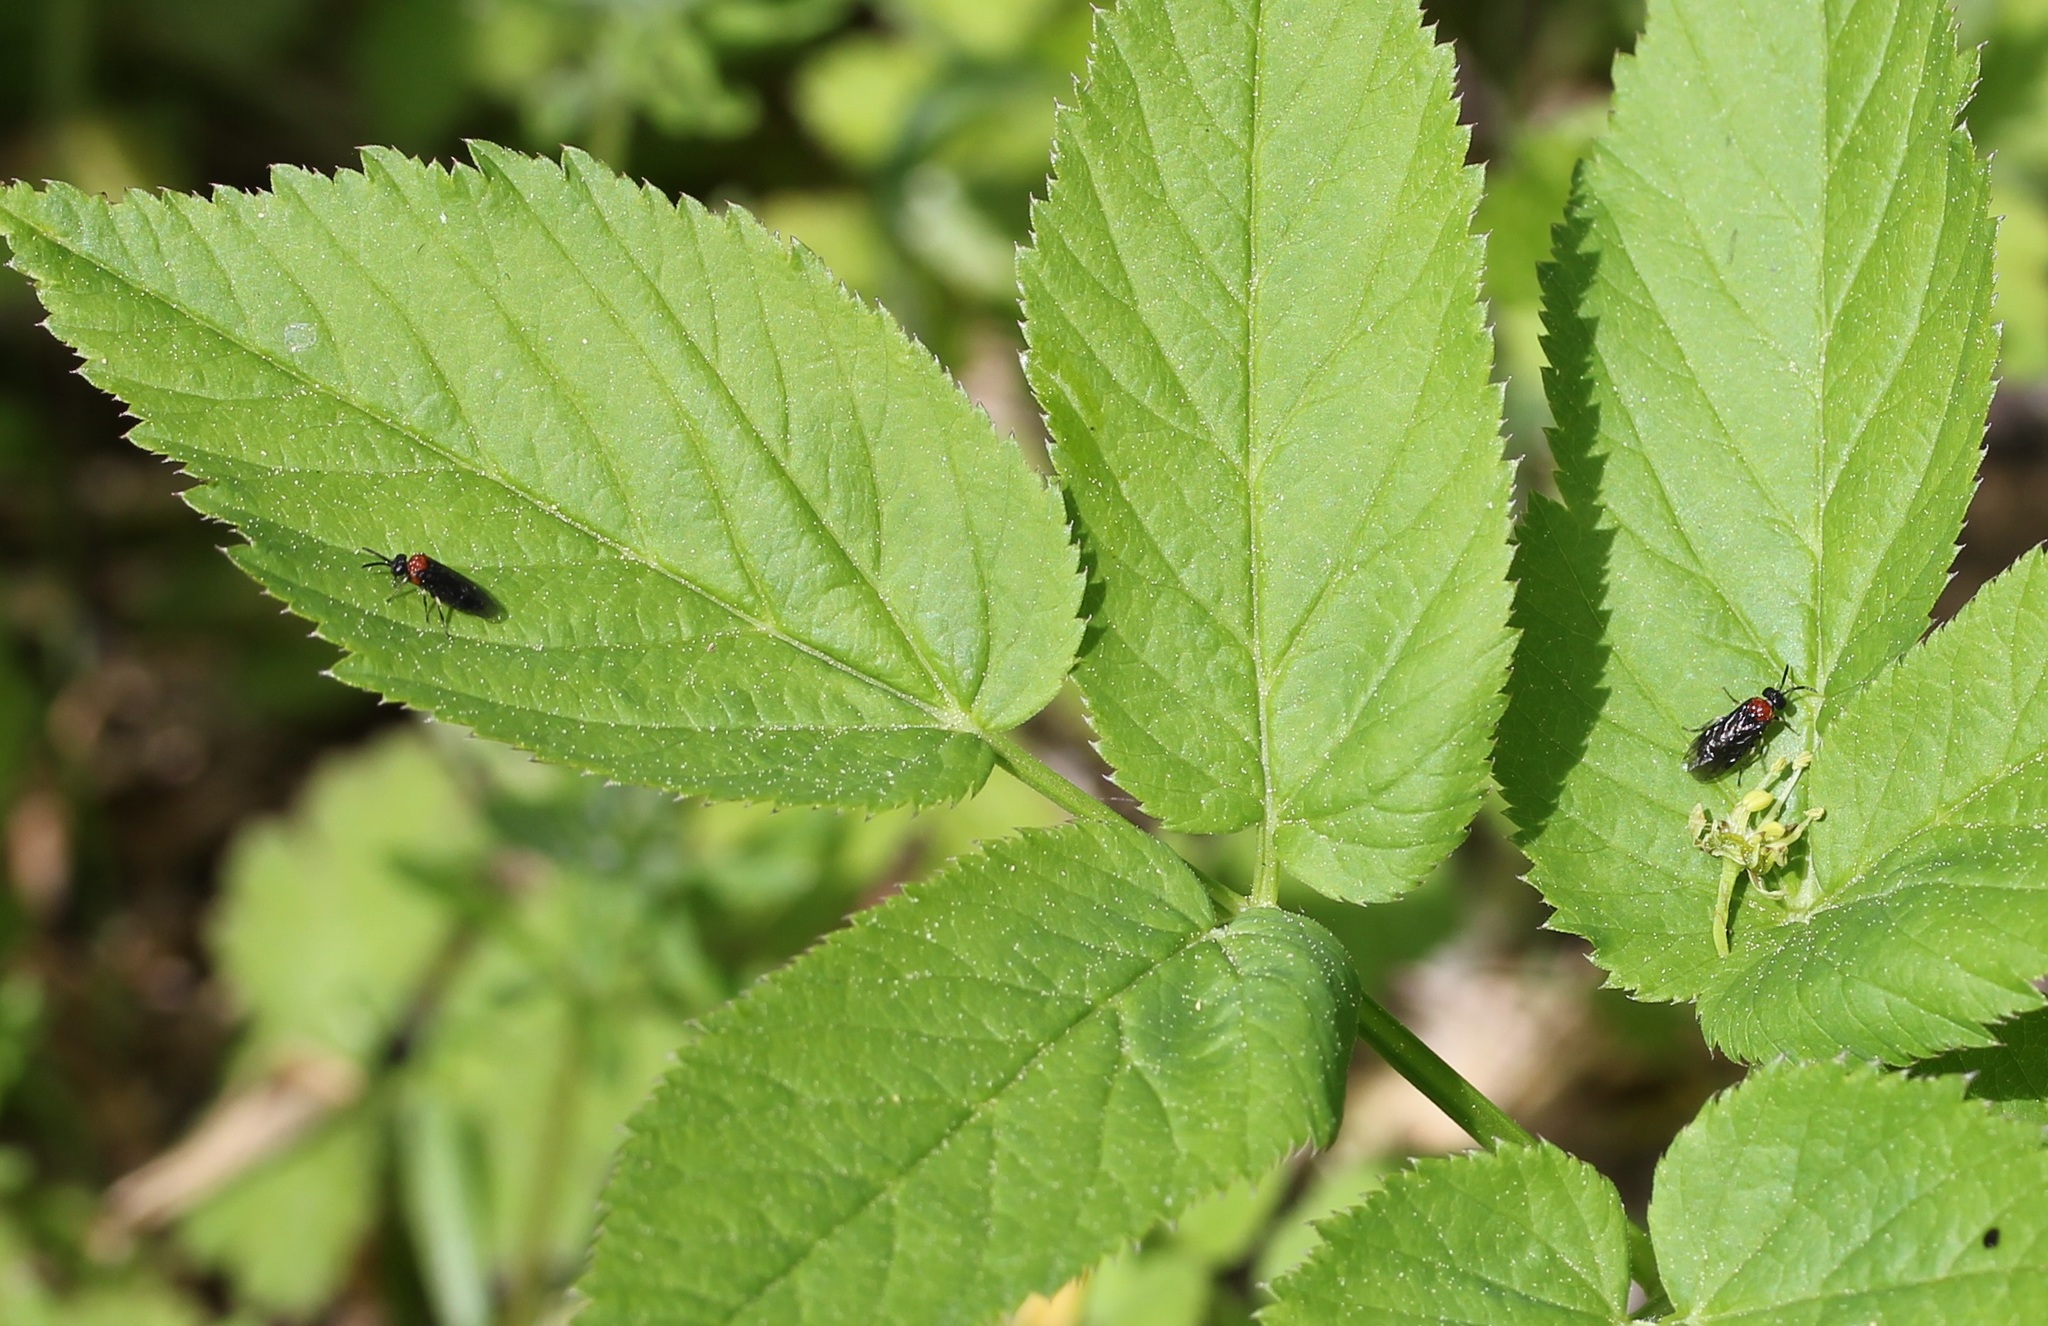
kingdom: Animalia
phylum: Arthropoda
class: Insecta
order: Hymenoptera
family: Tenthredinidae
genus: Eutomostethus
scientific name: Eutomostethus ephippium
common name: Tenthredid wasp
